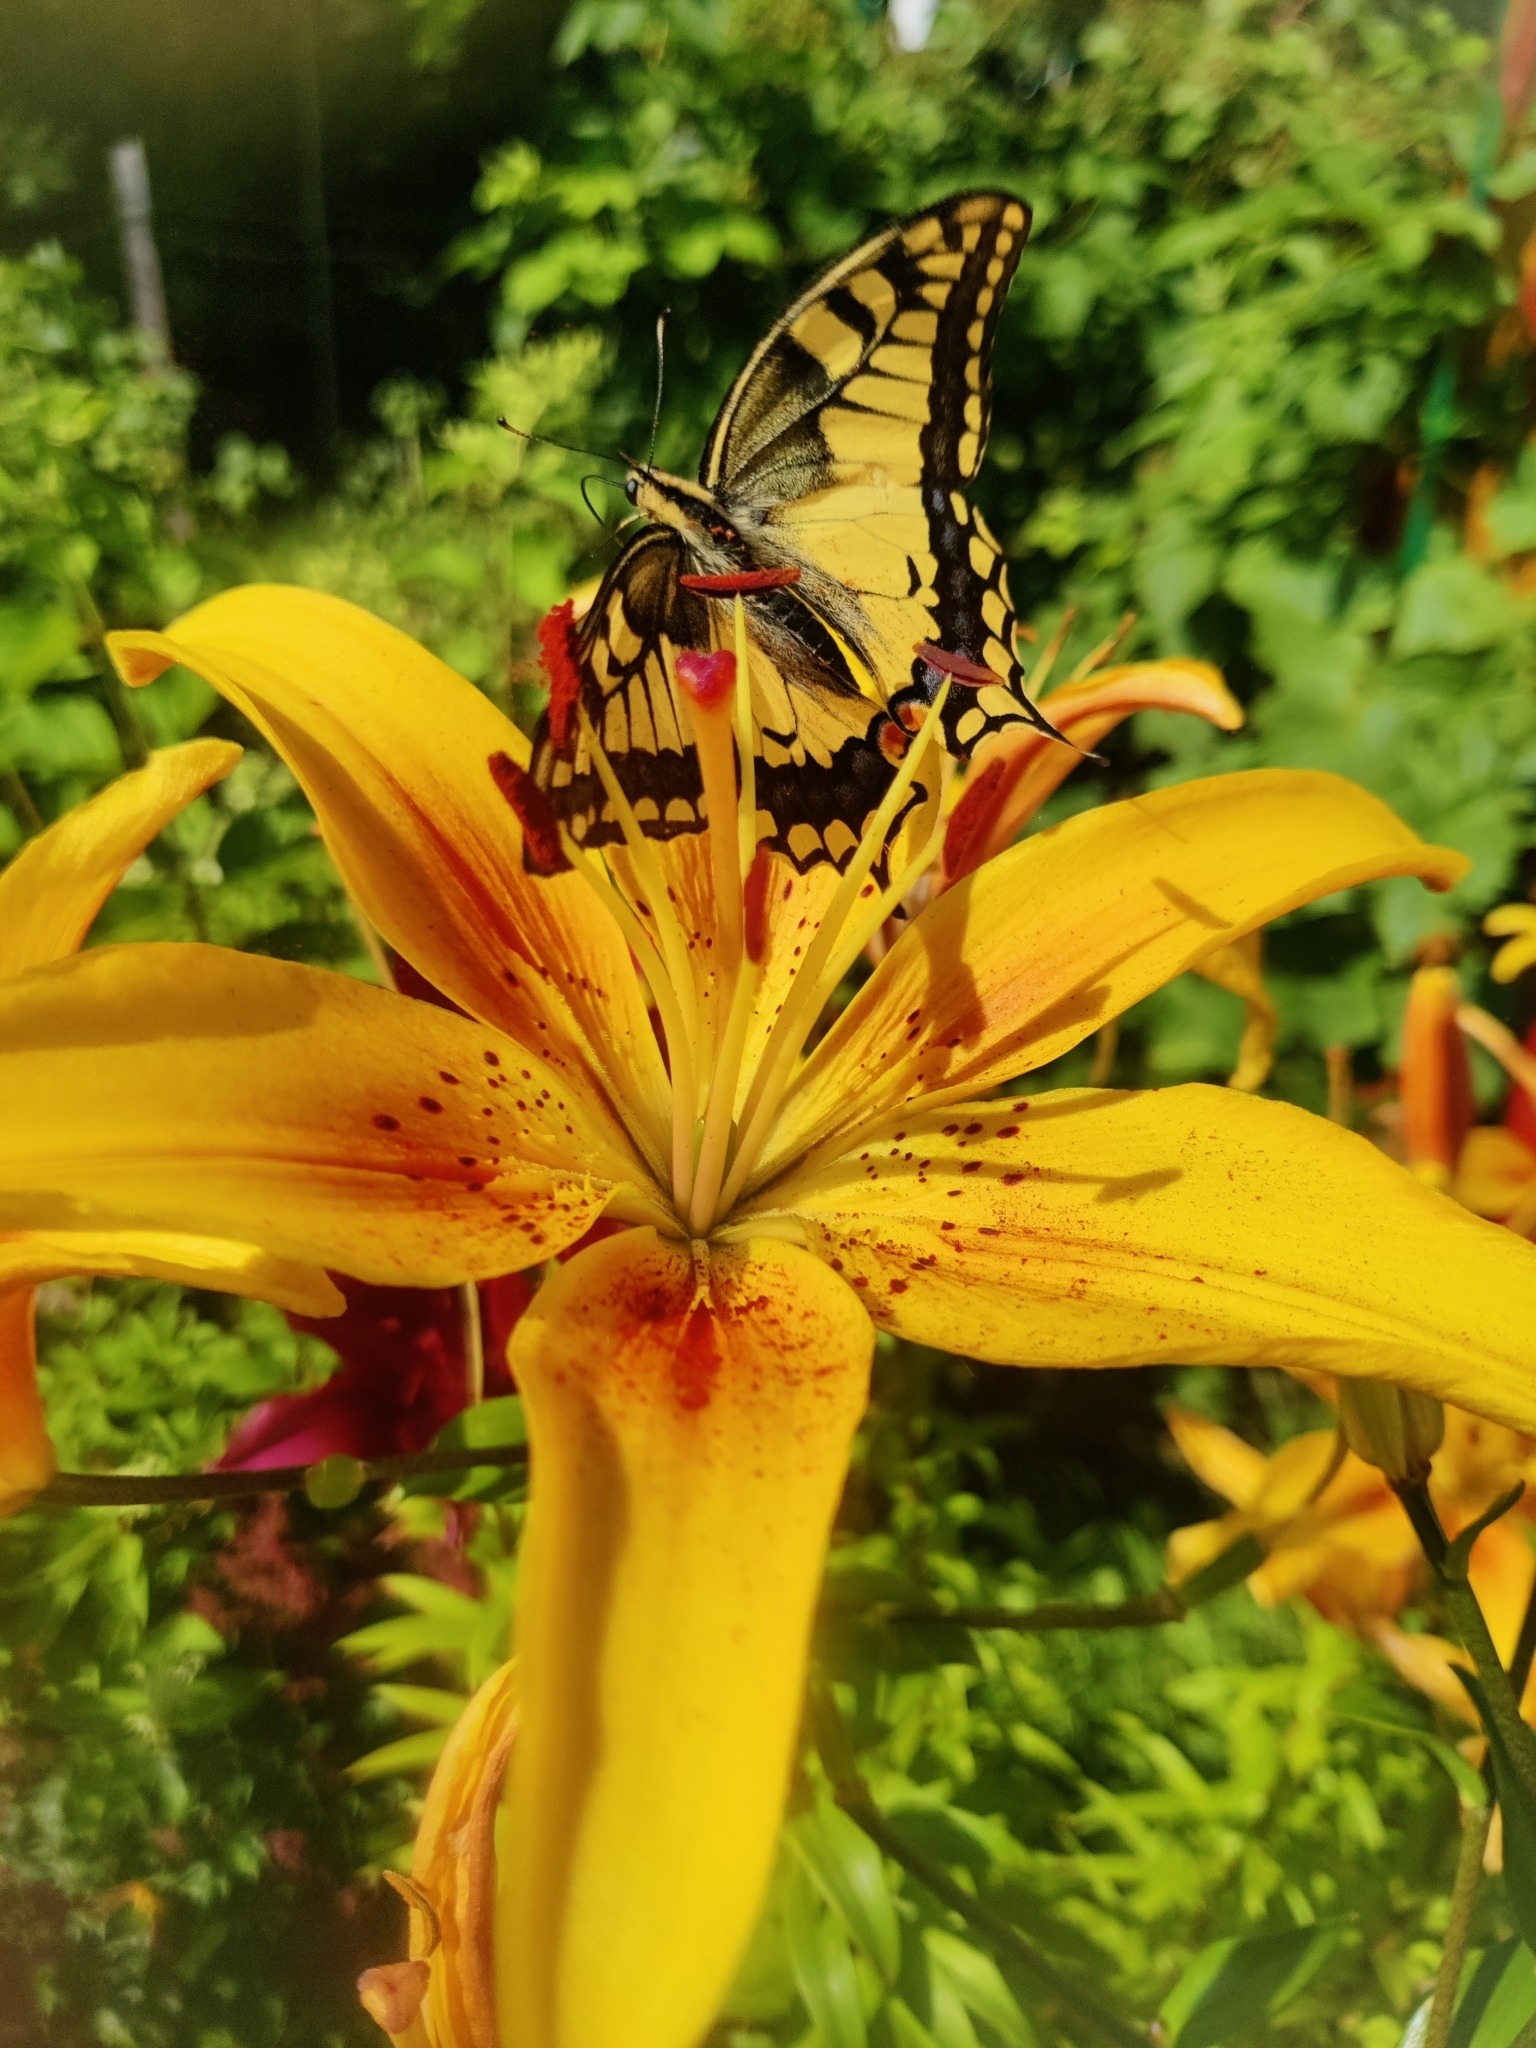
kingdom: Animalia
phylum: Arthropoda
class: Insecta
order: Lepidoptera
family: Papilionidae
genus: Papilio
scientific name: Papilio machaon
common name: Swallowtail
